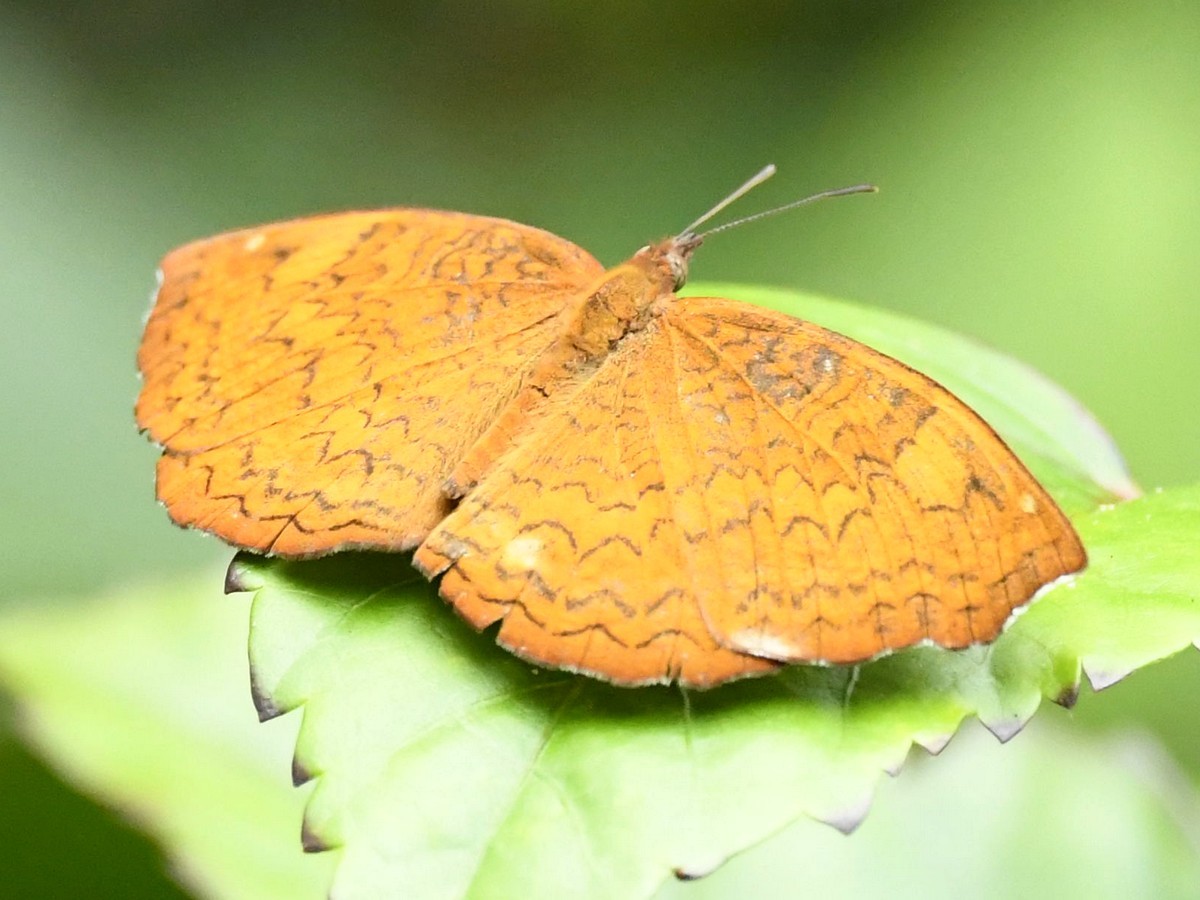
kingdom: Animalia
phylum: Arthropoda
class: Insecta
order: Lepidoptera
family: Nymphalidae
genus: Ariadne
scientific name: Ariadne merione
